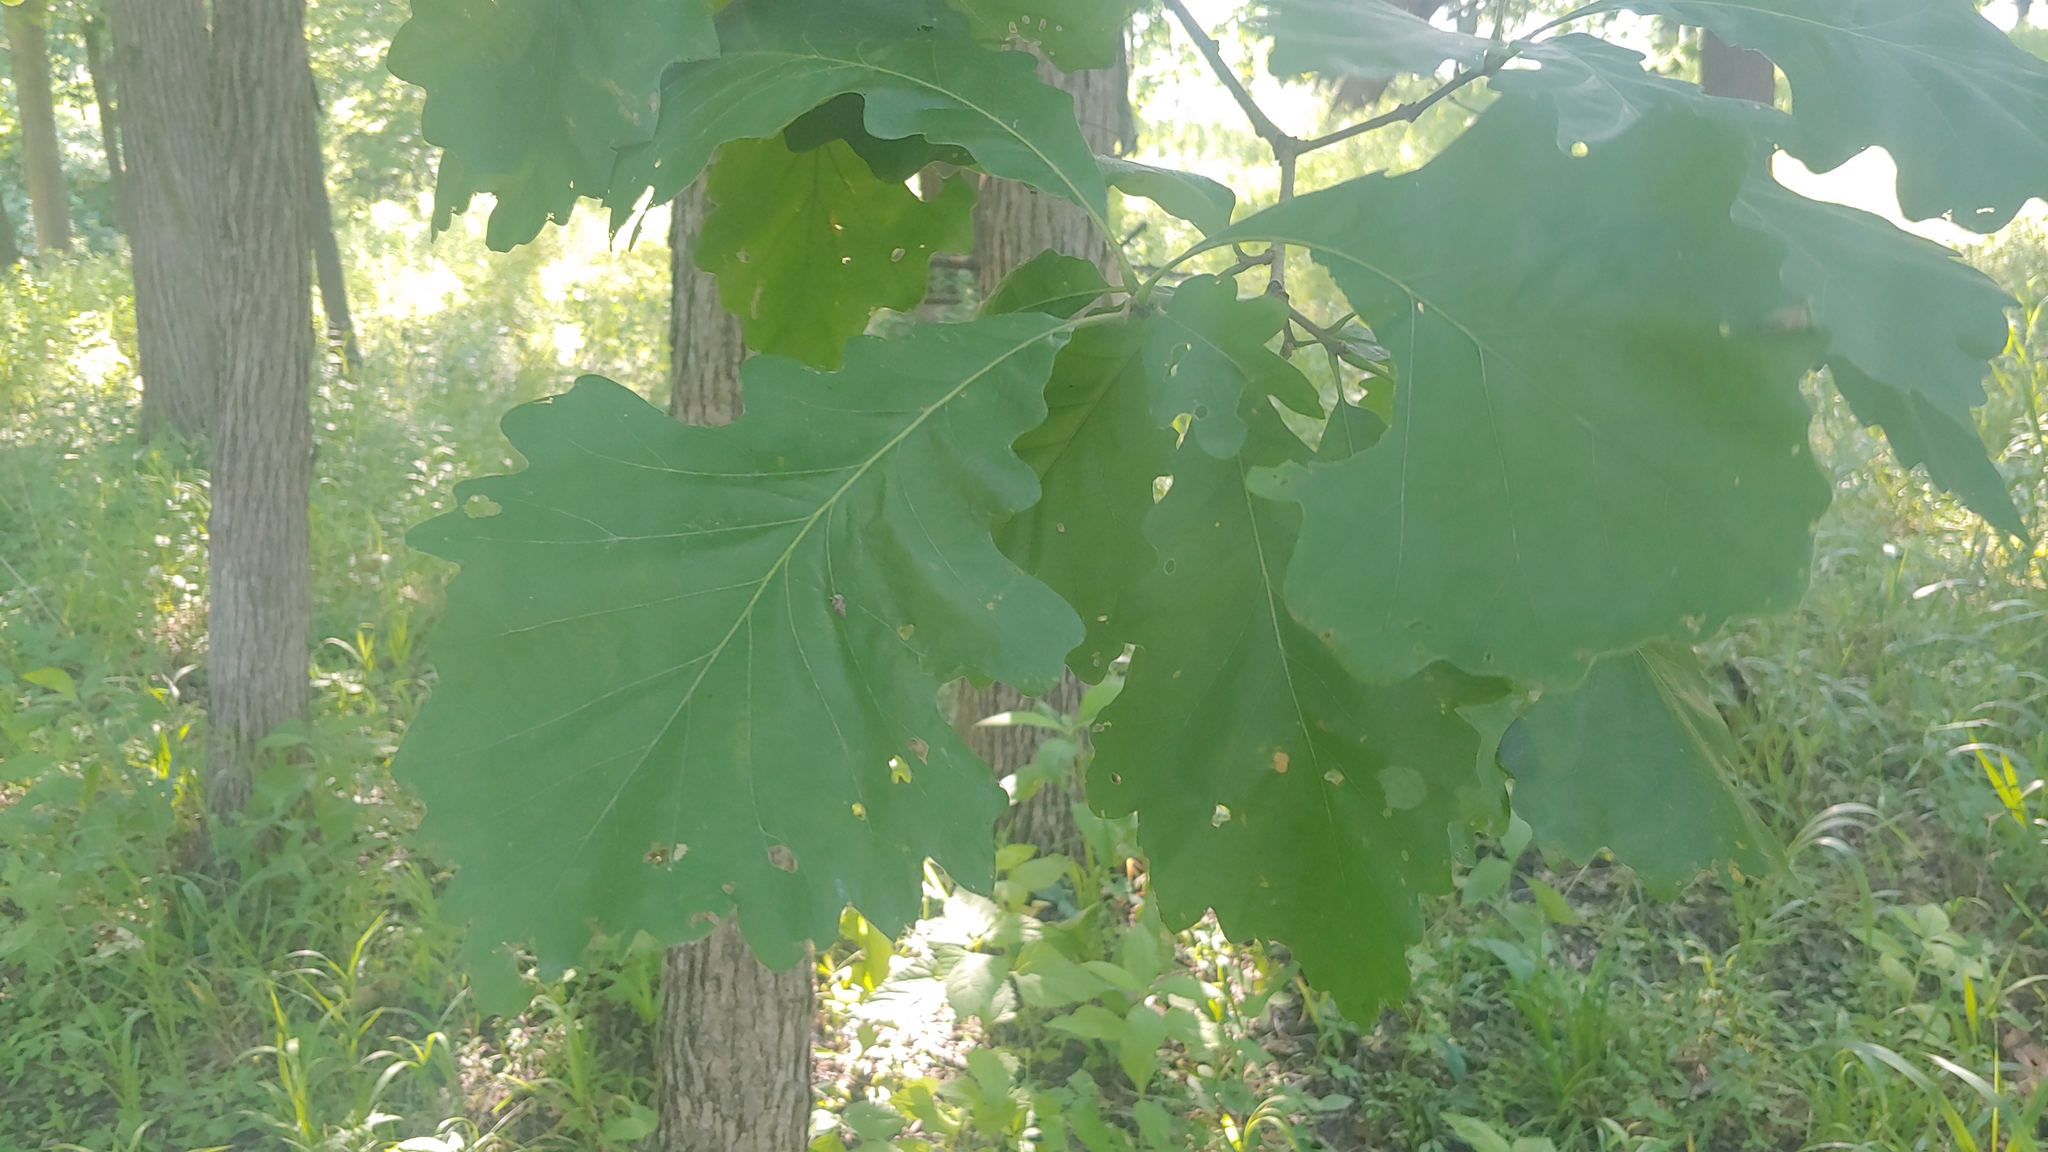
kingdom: Plantae
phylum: Tracheophyta
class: Magnoliopsida
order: Fagales
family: Fagaceae
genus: Quercus
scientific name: Quercus macrocarpa
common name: Bur oak
